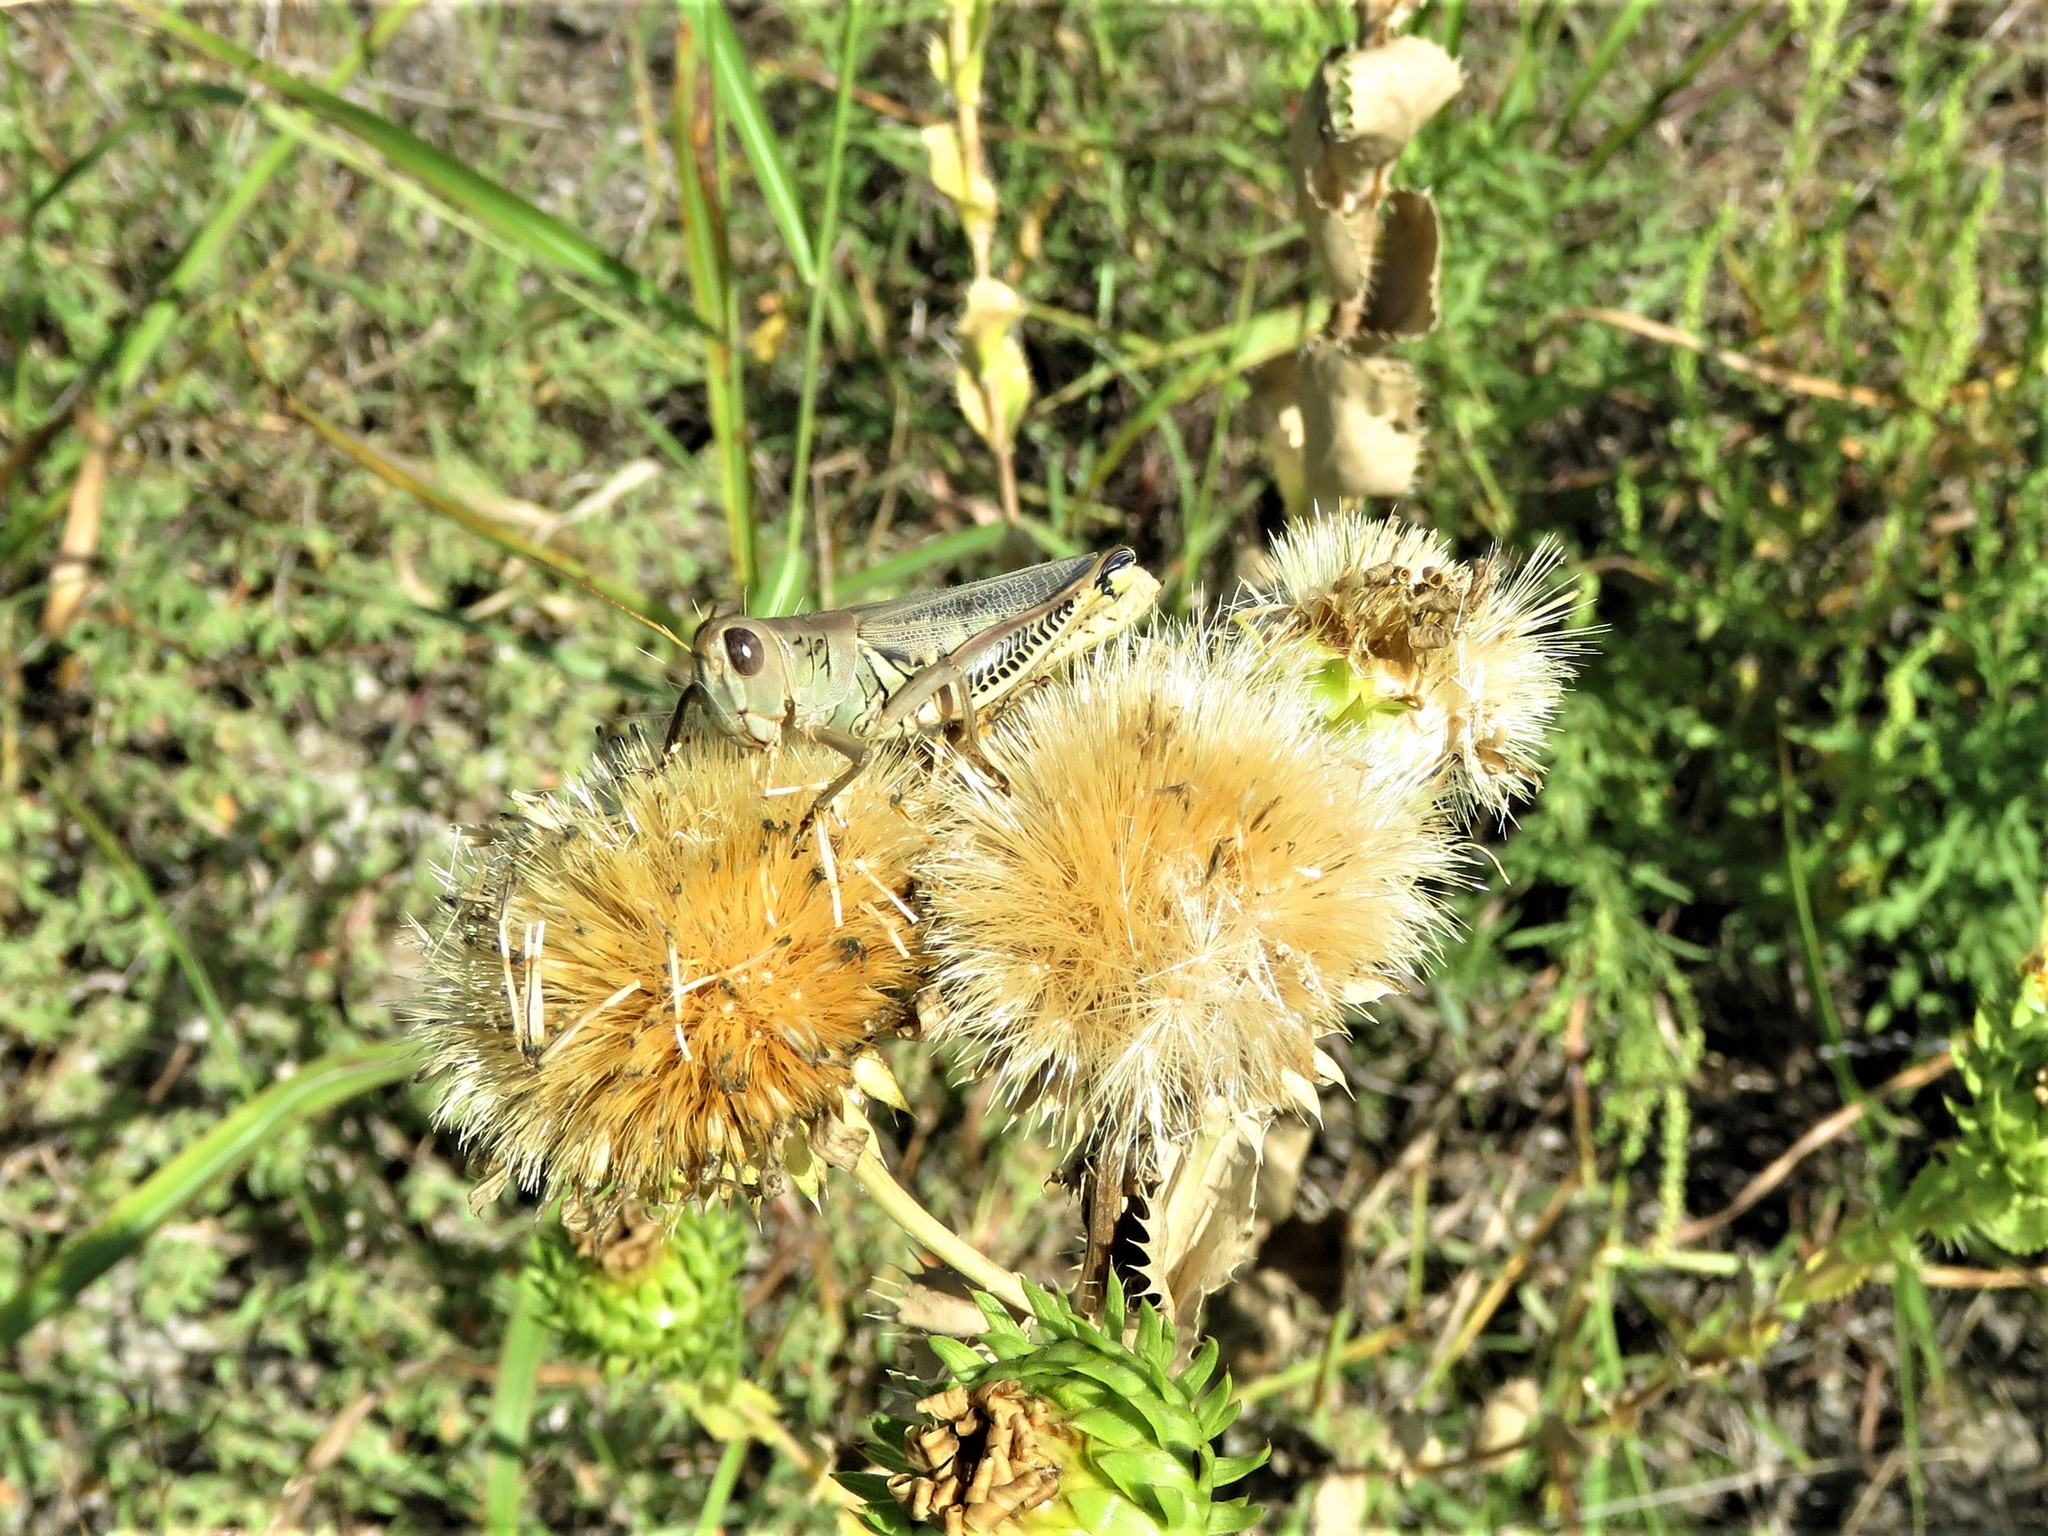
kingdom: Animalia
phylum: Arthropoda
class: Insecta
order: Orthoptera
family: Acrididae
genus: Melanoplus
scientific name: Melanoplus differentialis
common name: Differential grasshopper
